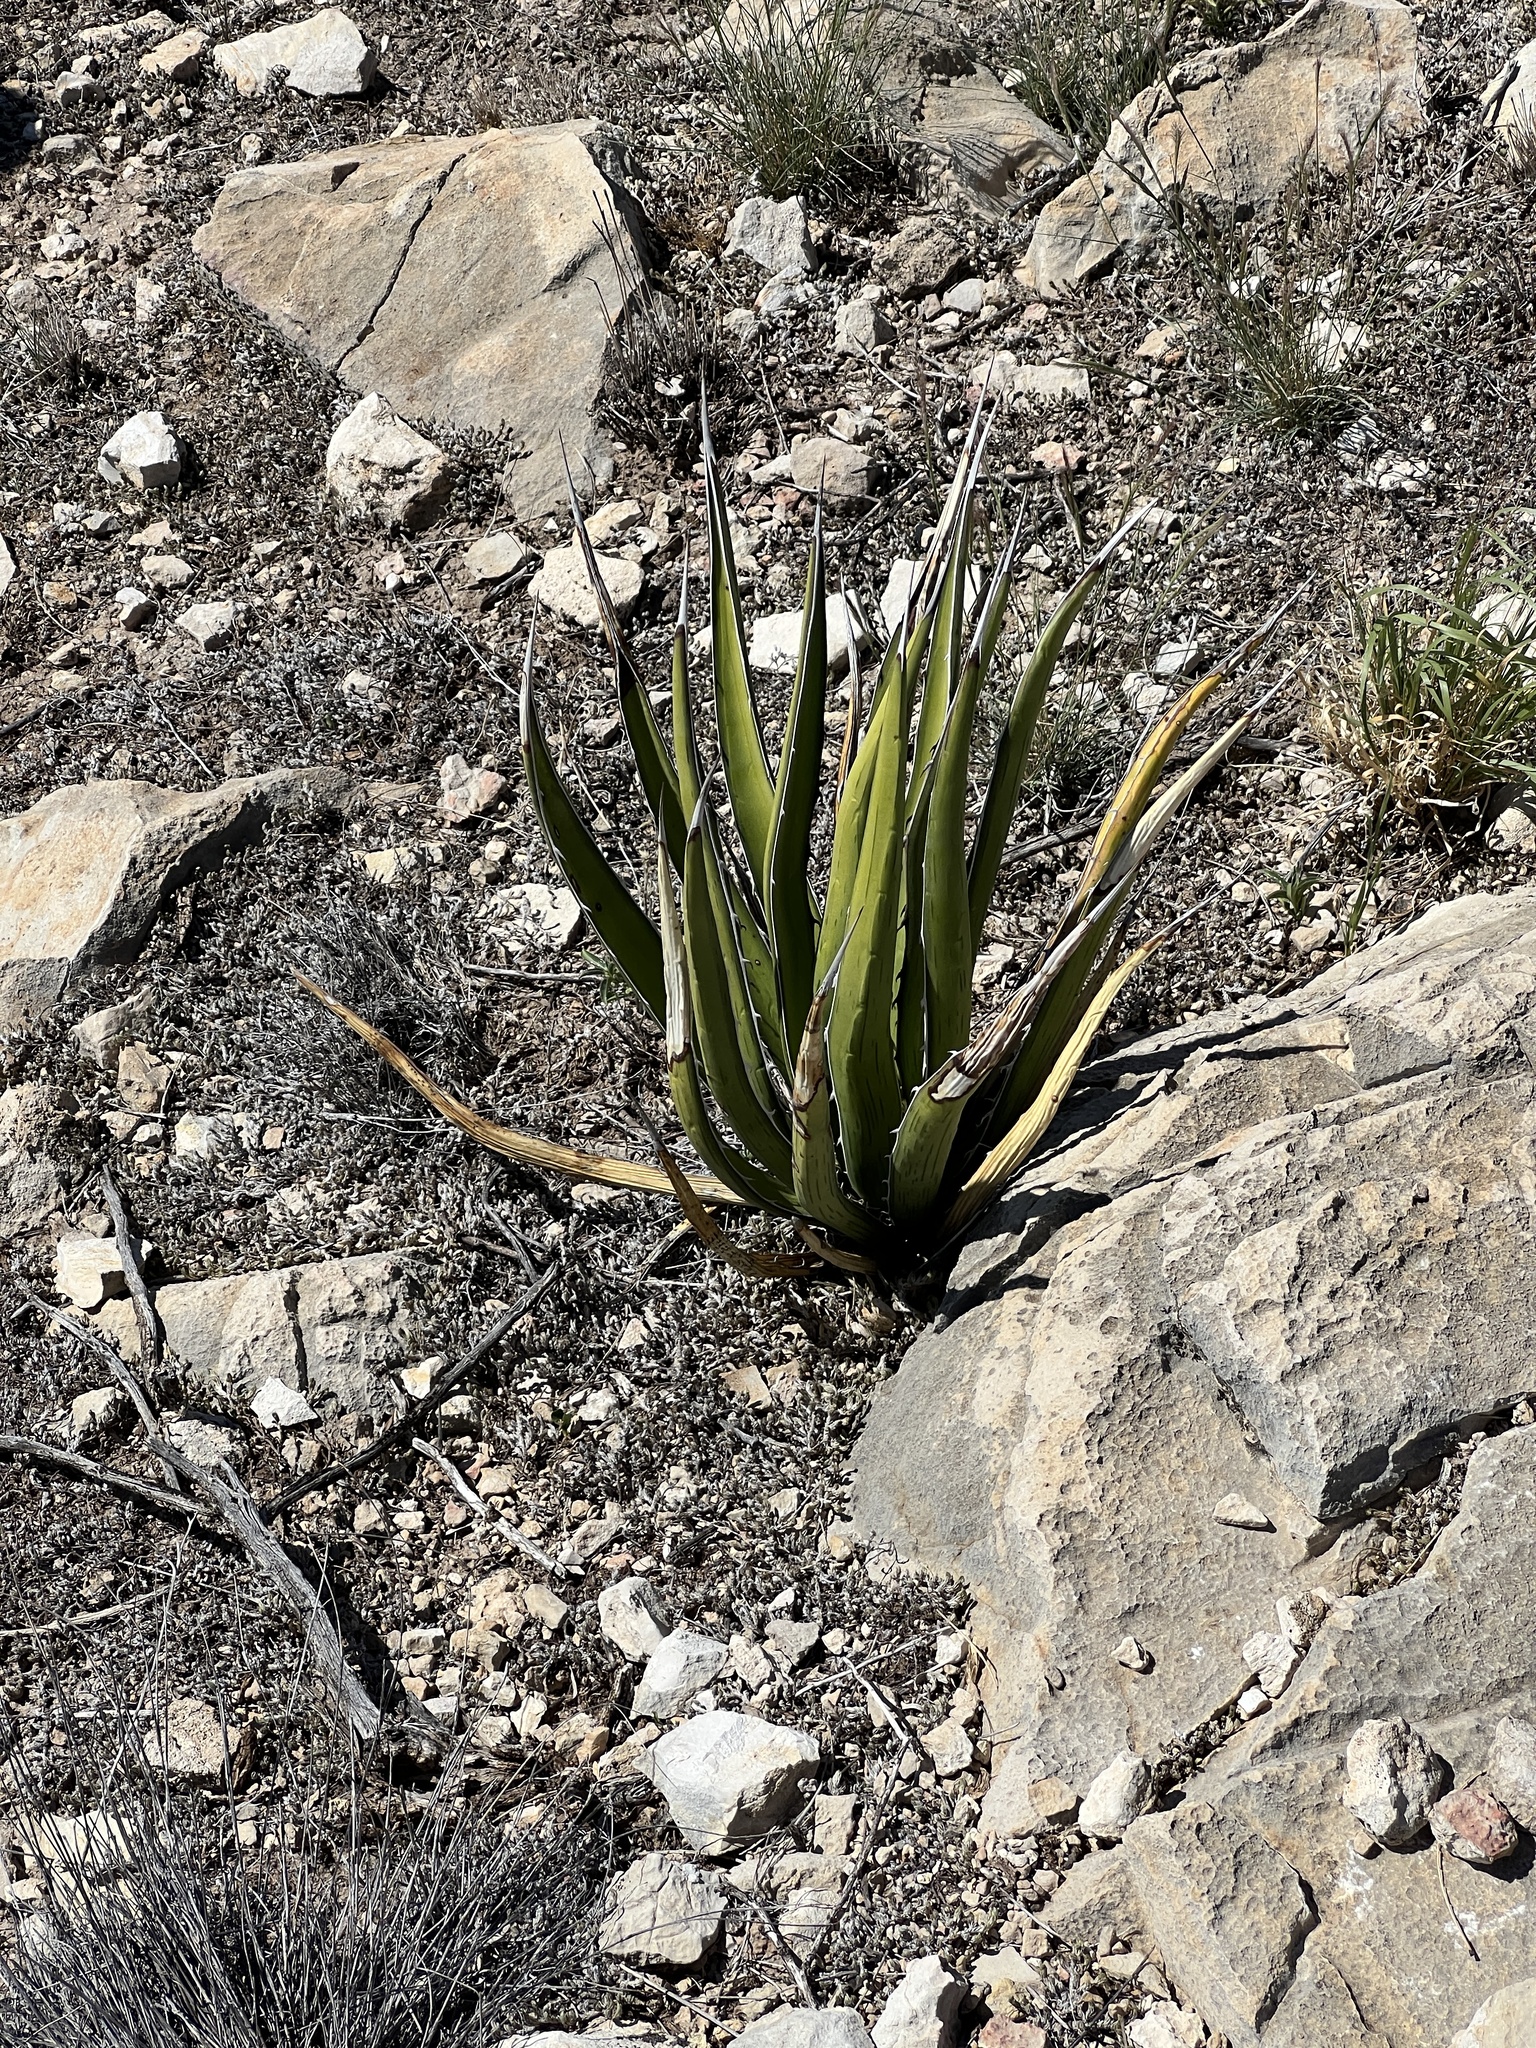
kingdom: Plantae
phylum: Tracheophyta
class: Liliopsida
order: Asparagales
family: Asparagaceae
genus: Agave
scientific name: Agave lechuguilla
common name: Lecheguilla agave
